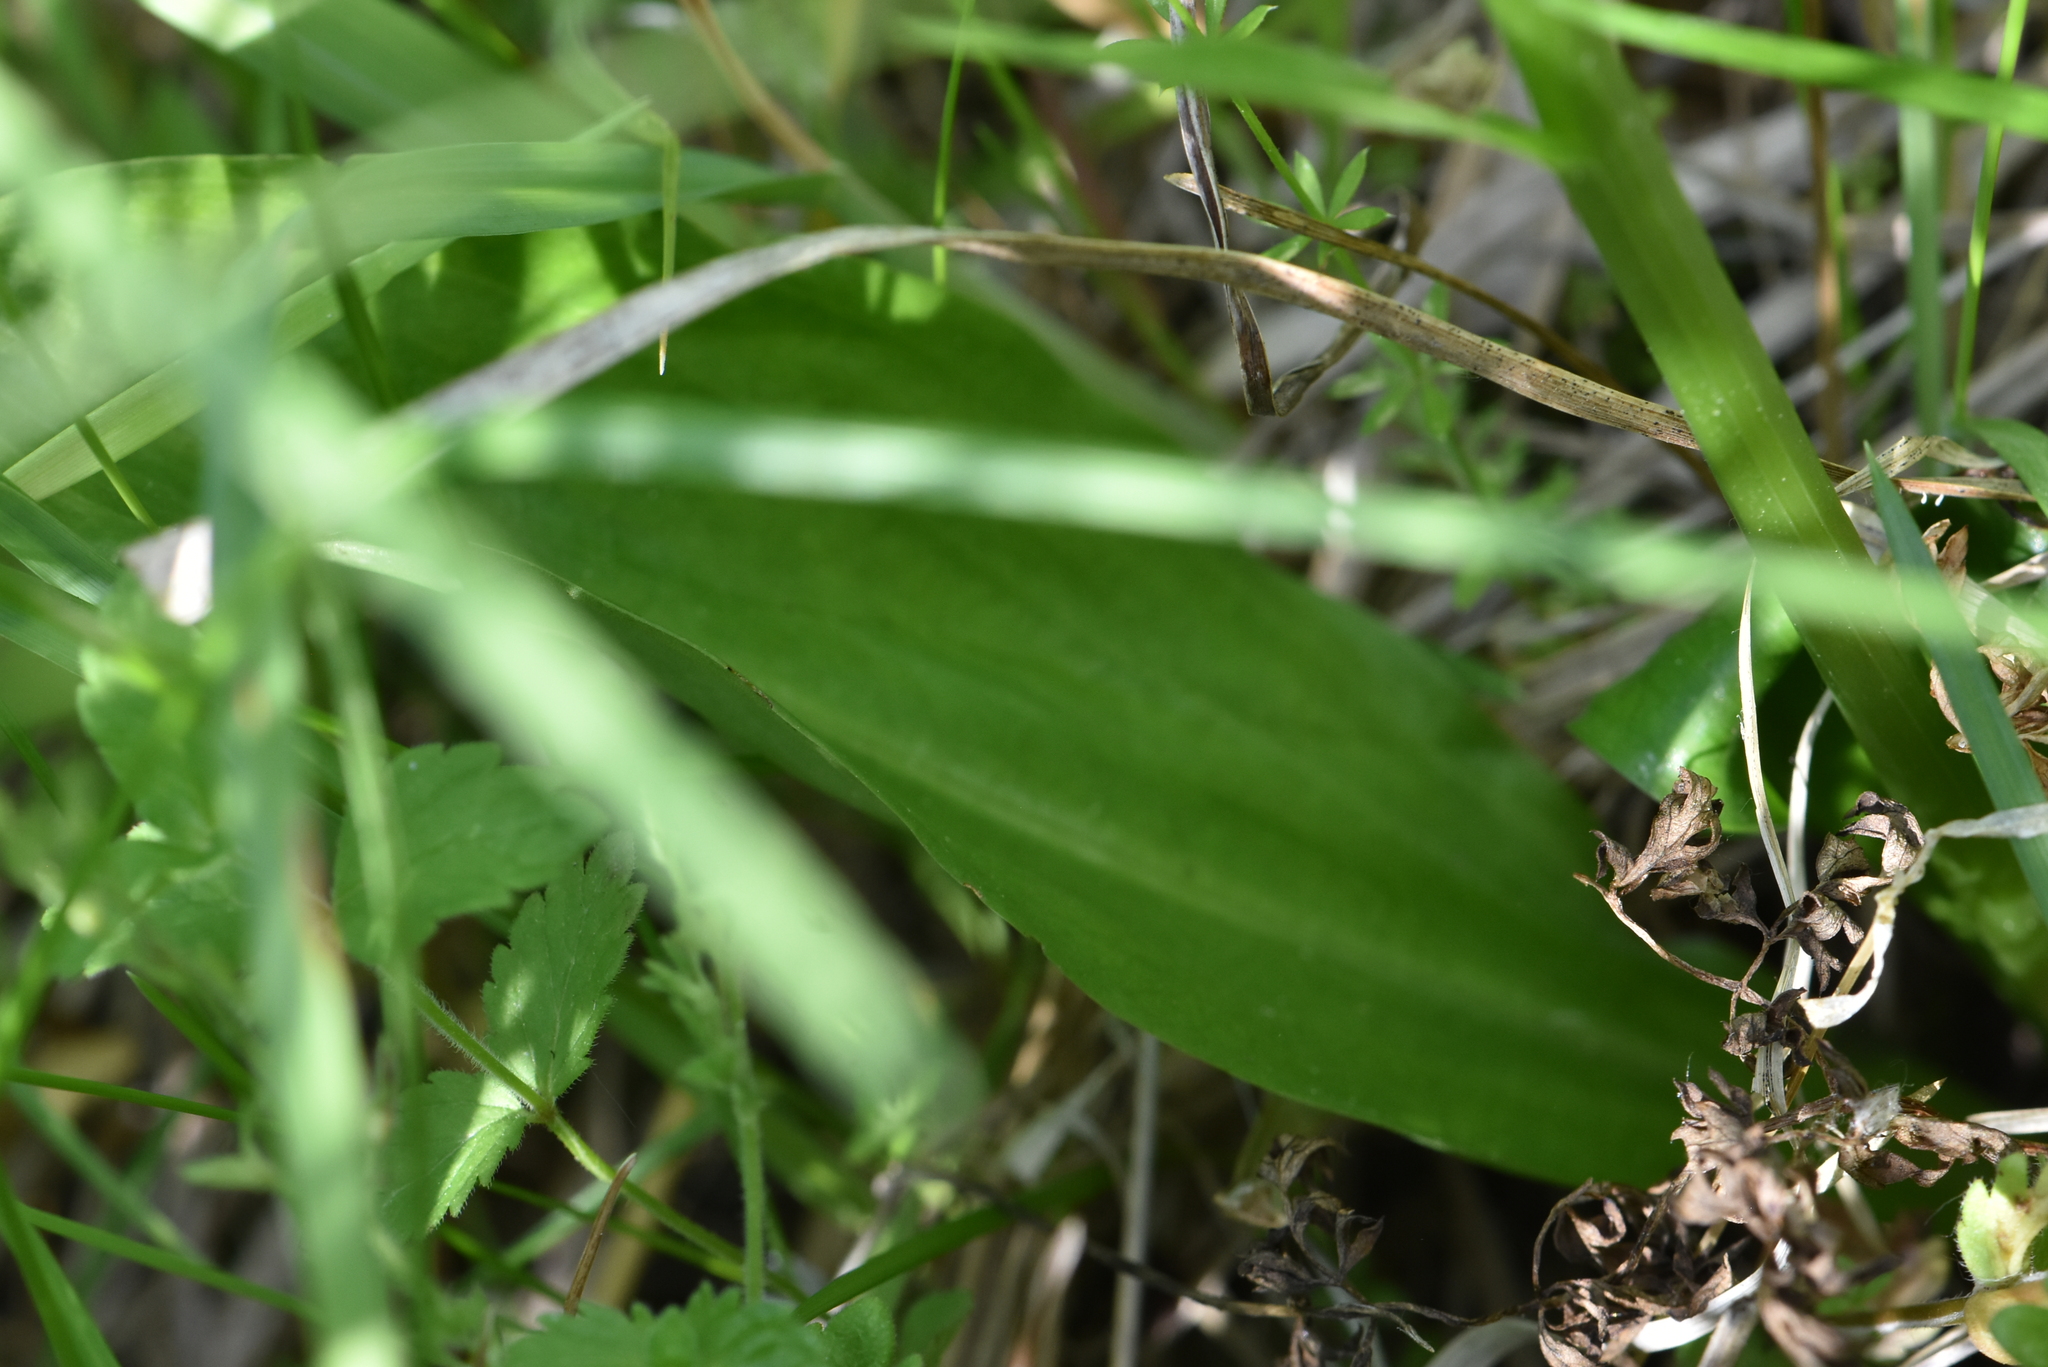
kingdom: Plantae
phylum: Tracheophyta
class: Liliopsida
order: Asparagales
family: Orchidaceae
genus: Platanthera
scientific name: Platanthera bifolia
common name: Lesser butterfly-orchid
